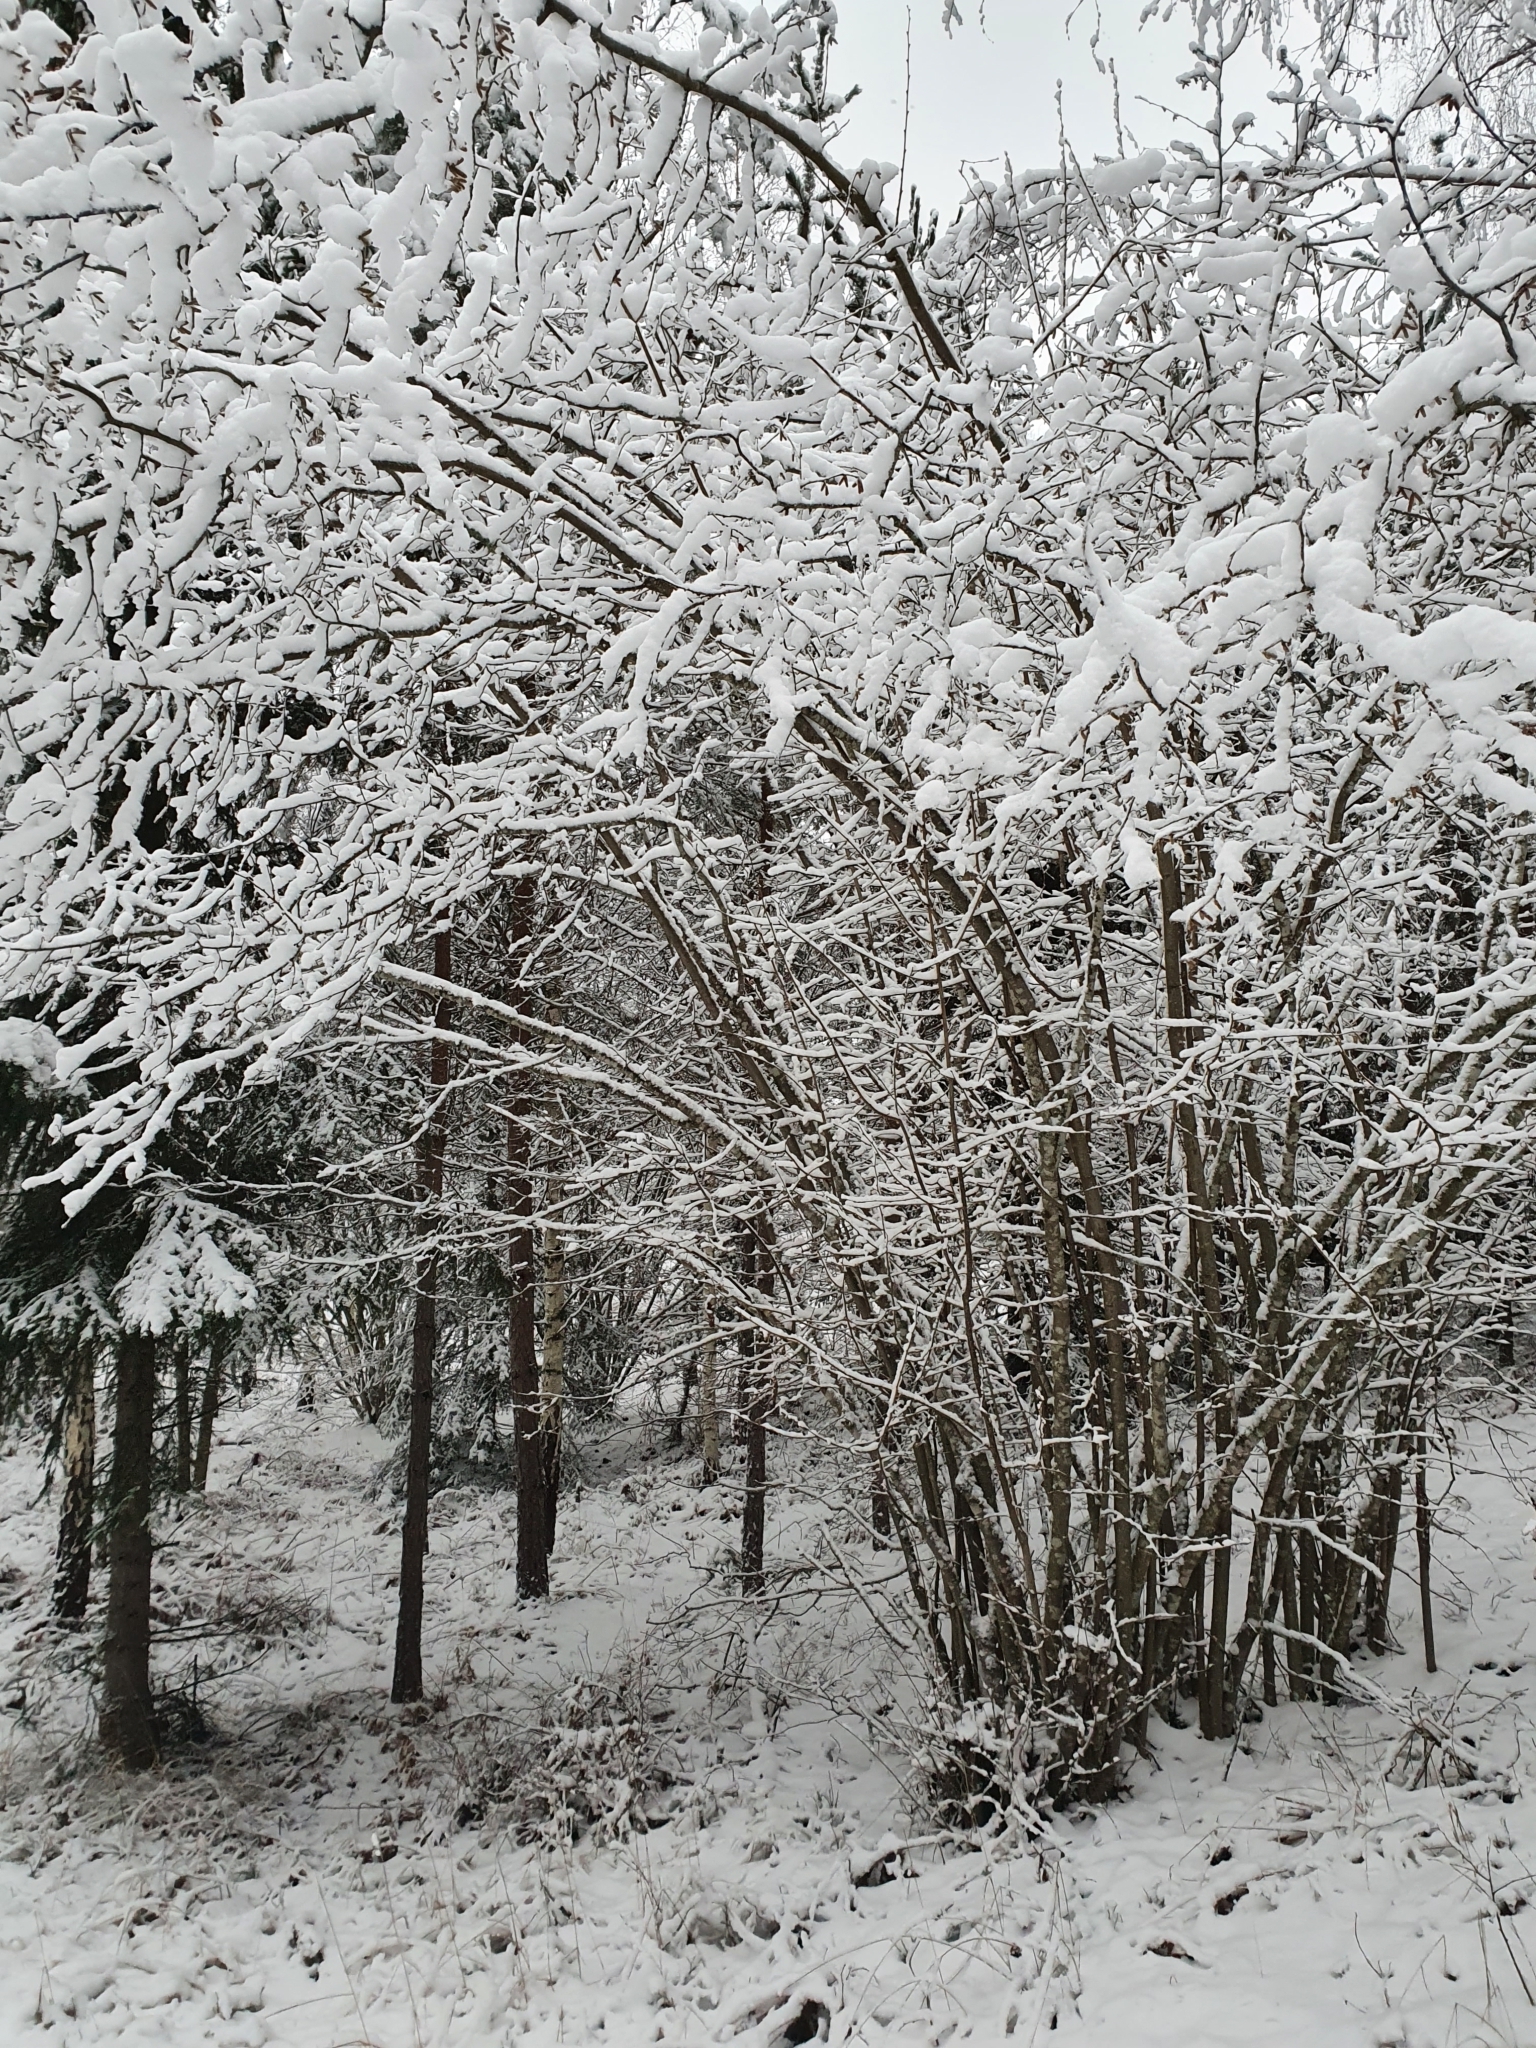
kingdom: Plantae
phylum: Tracheophyta
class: Magnoliopsida
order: Fagales
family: Betulaceae
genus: Corylus
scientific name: Corylus avellana
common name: European hazel
